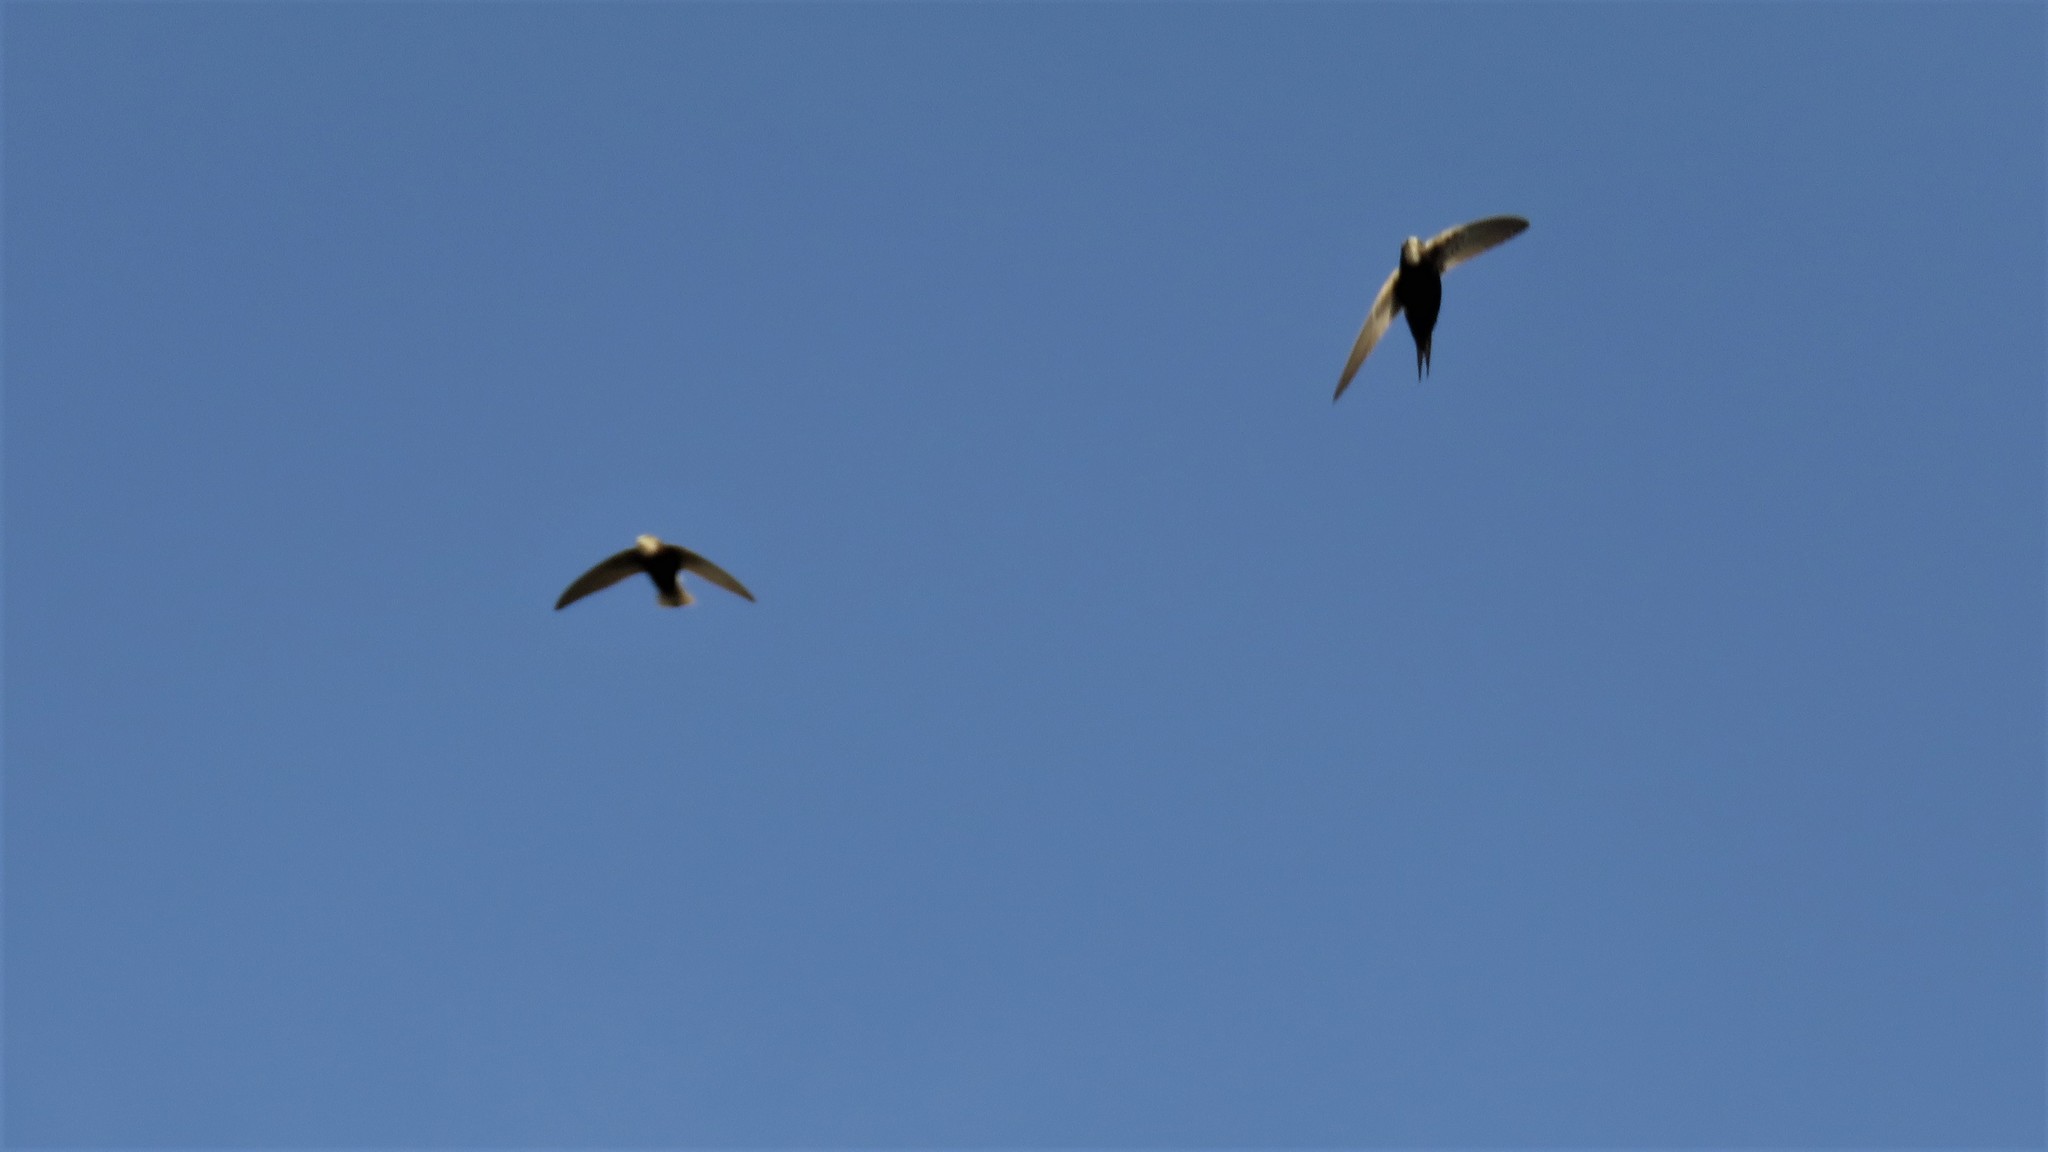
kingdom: Animalia
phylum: Chordata
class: Aves
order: Apodiformes
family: Apodidae
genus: Apus
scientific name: Apus caffer
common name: White-rumped swift
